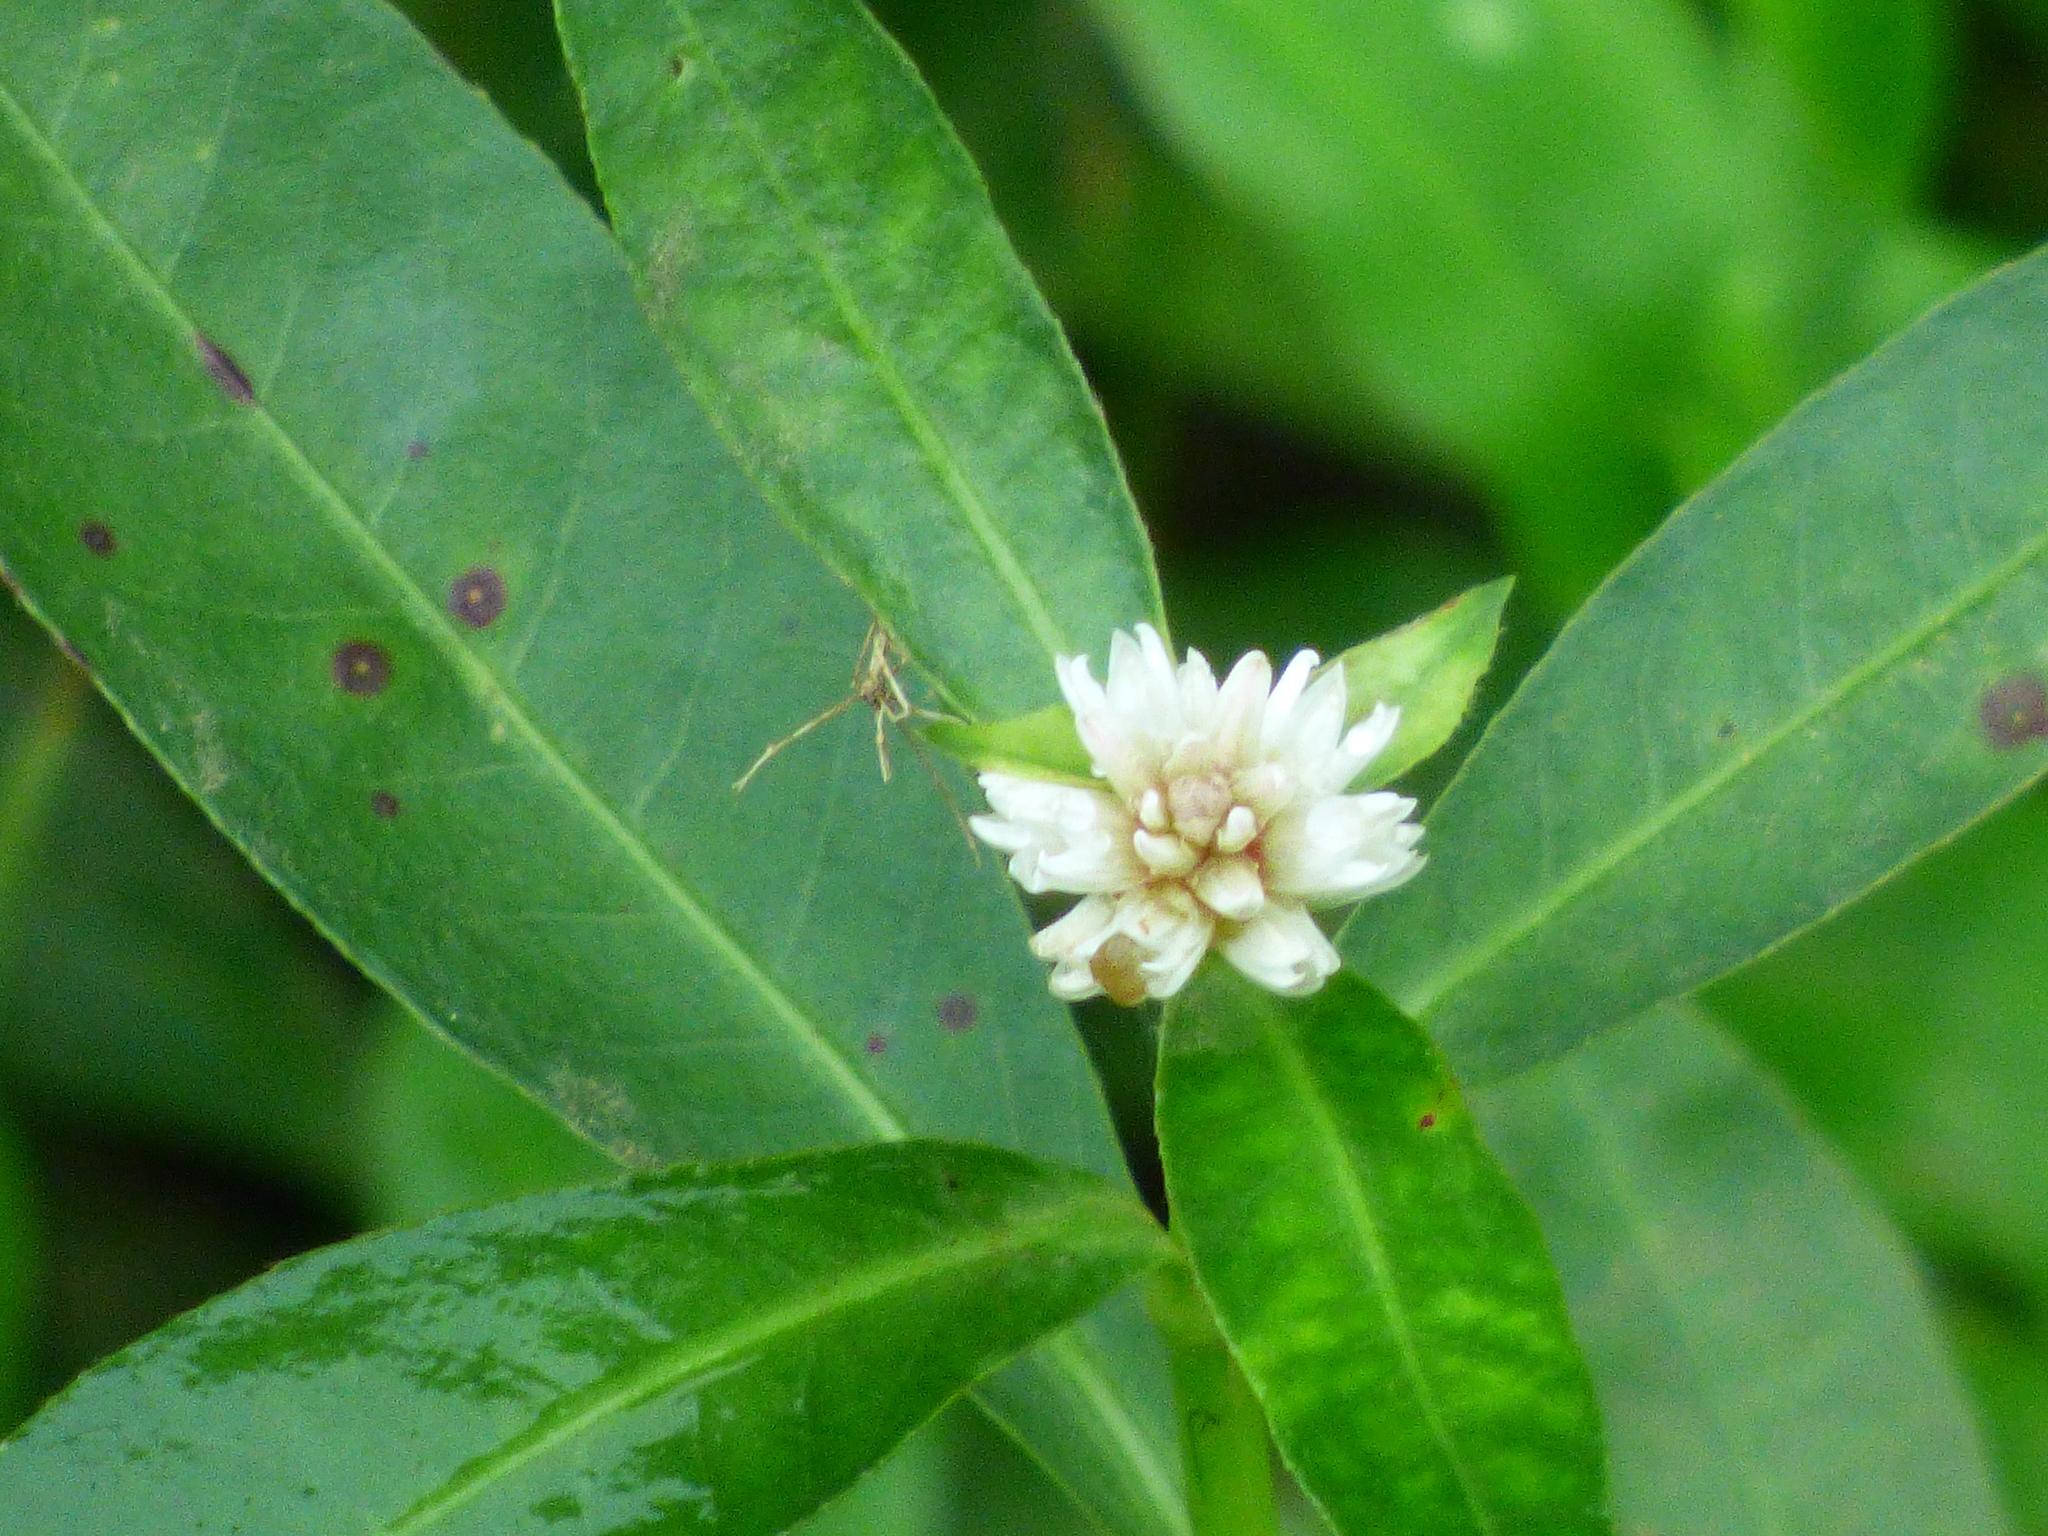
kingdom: Plantae
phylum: Tracheophyta
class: Magnoliopsida
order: Caryophyllales
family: Amaranthaceae
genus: Alternanthera
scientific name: Alternanthera philoxeroides
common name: Alligatorweed
